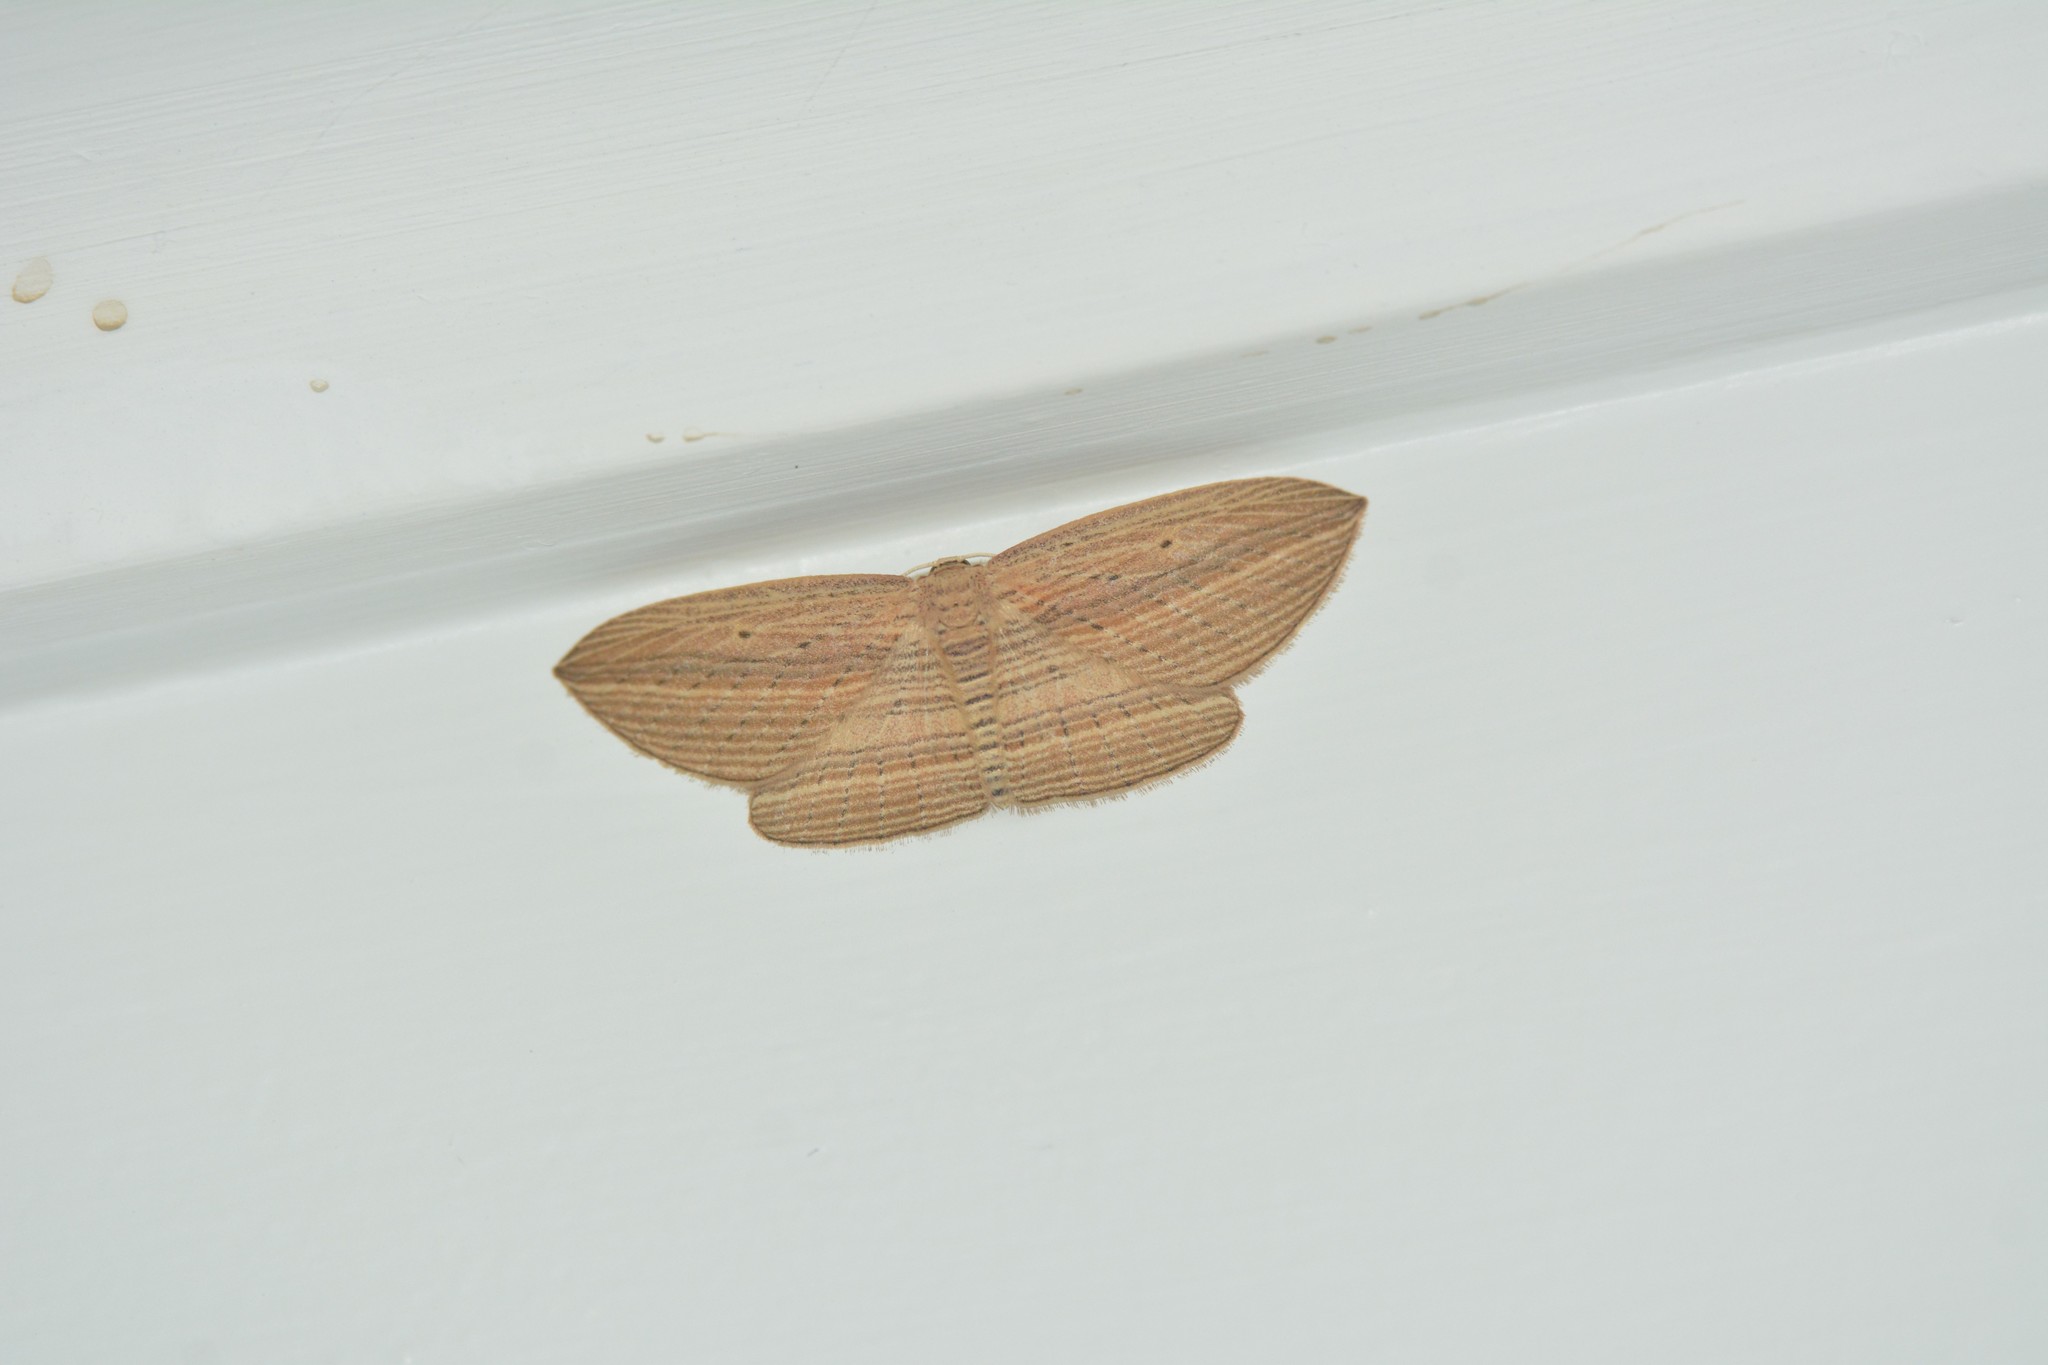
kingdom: Animalia
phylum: Arthropoda
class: Insecta
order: Lepidoptera
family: Geometridae
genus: Epiphryne
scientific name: Epiphryne verriculata
